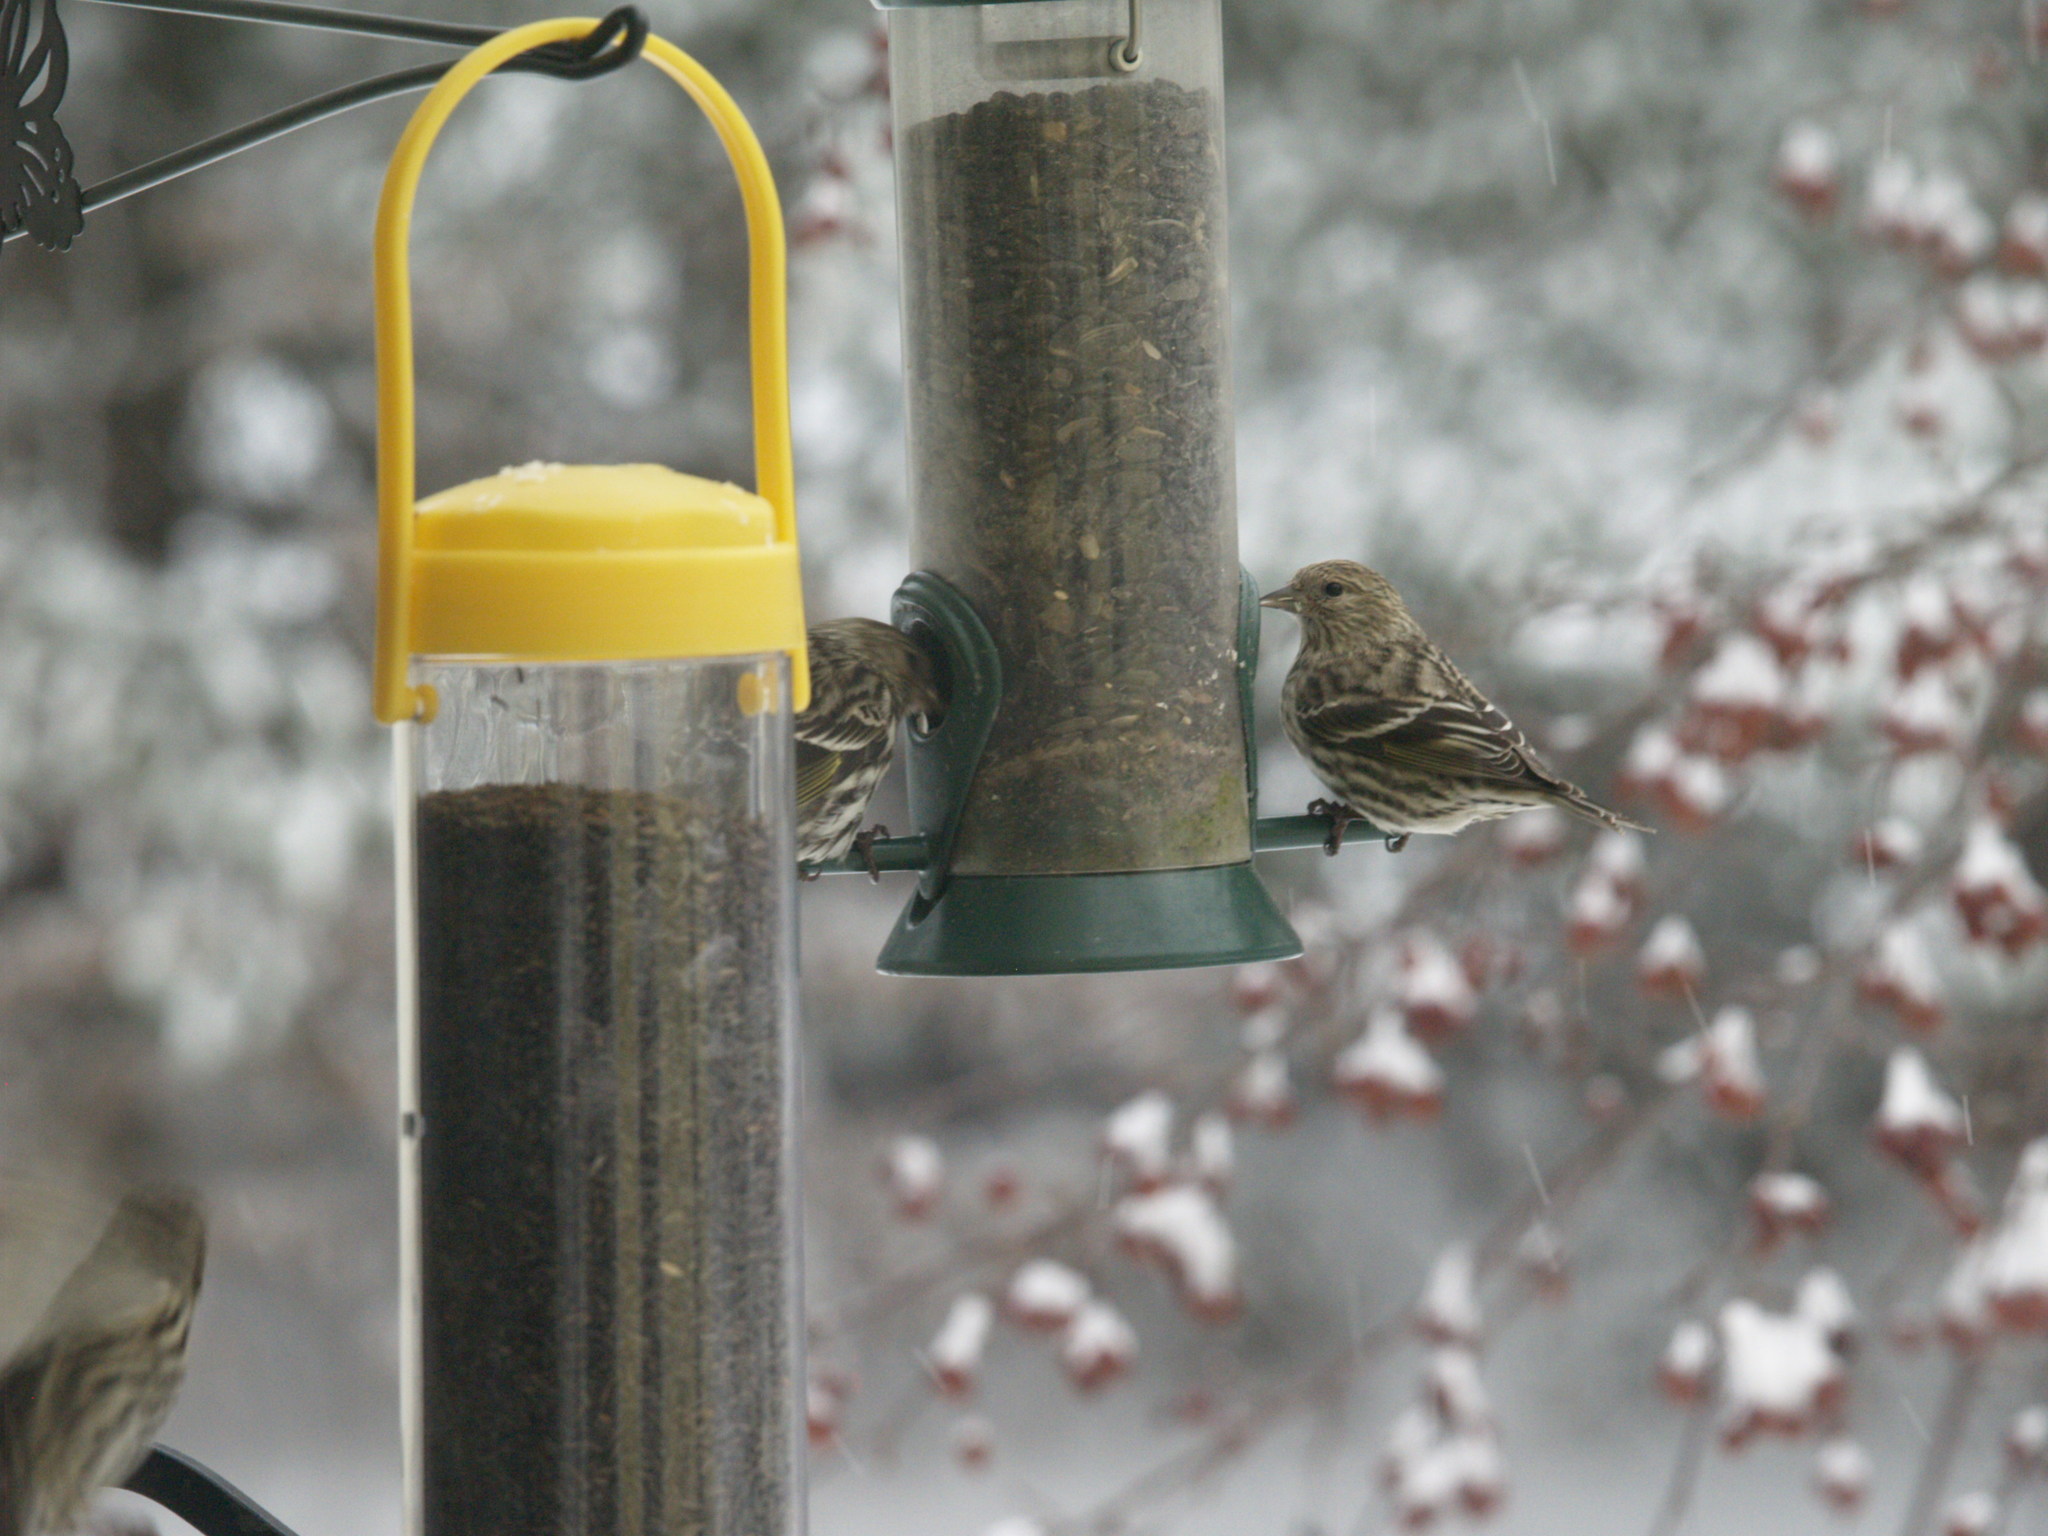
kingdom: Animalia
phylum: Chordata
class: Aves
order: Passeriformes
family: Fringillidae
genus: Spinus
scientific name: Spinus pinus
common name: Pine siskin
